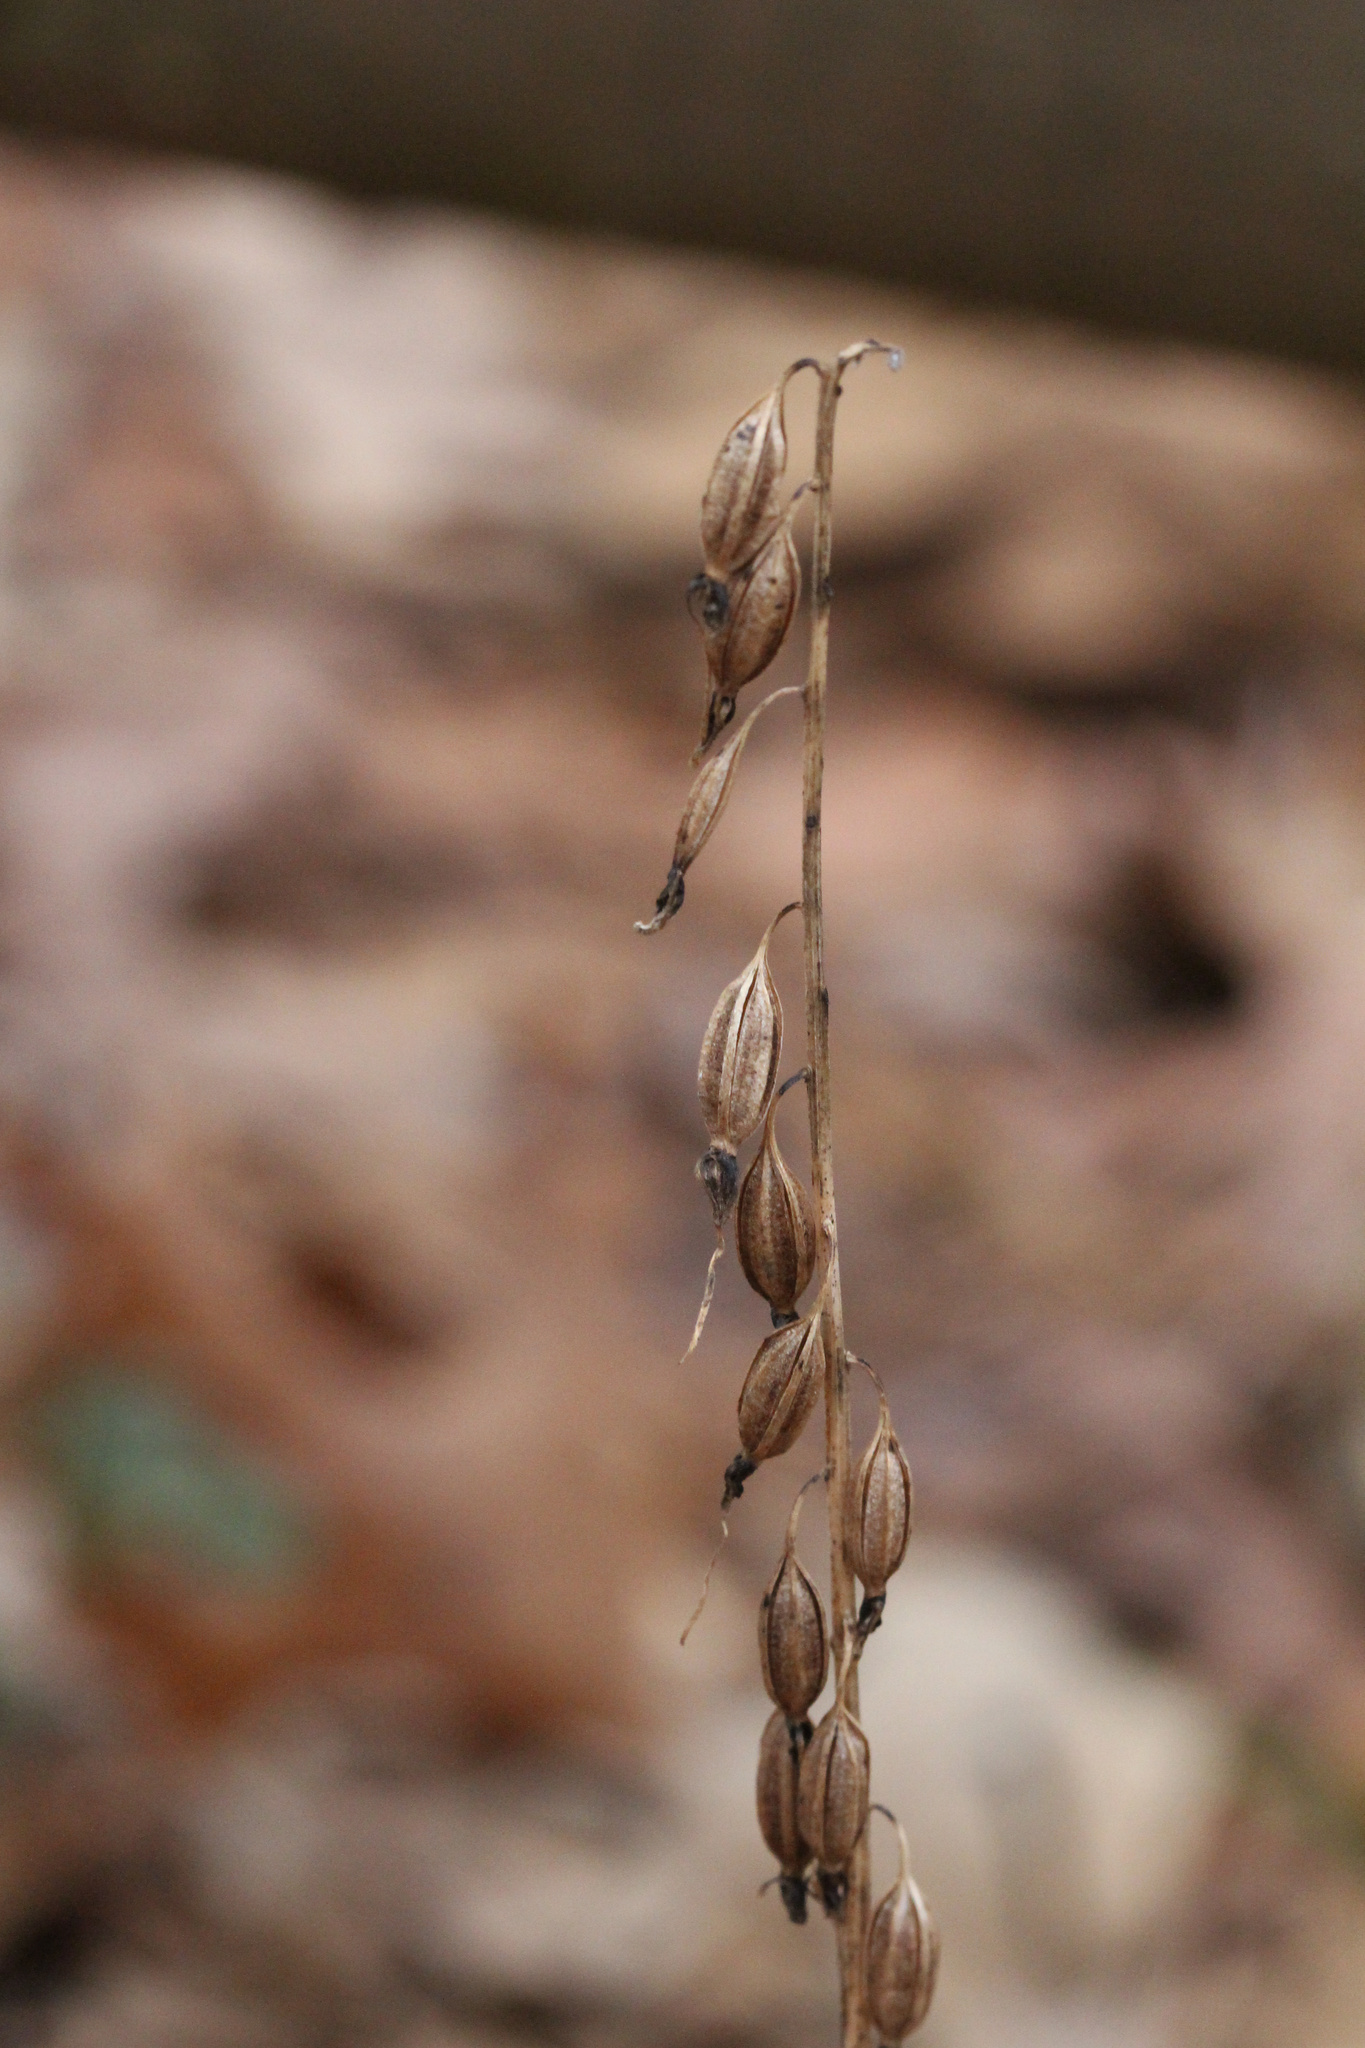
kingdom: Plantae
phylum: Tracheophyta
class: Liliopsida
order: Asparagales
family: Orchidaceae
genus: Tipularia
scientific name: Tipularia discolor
